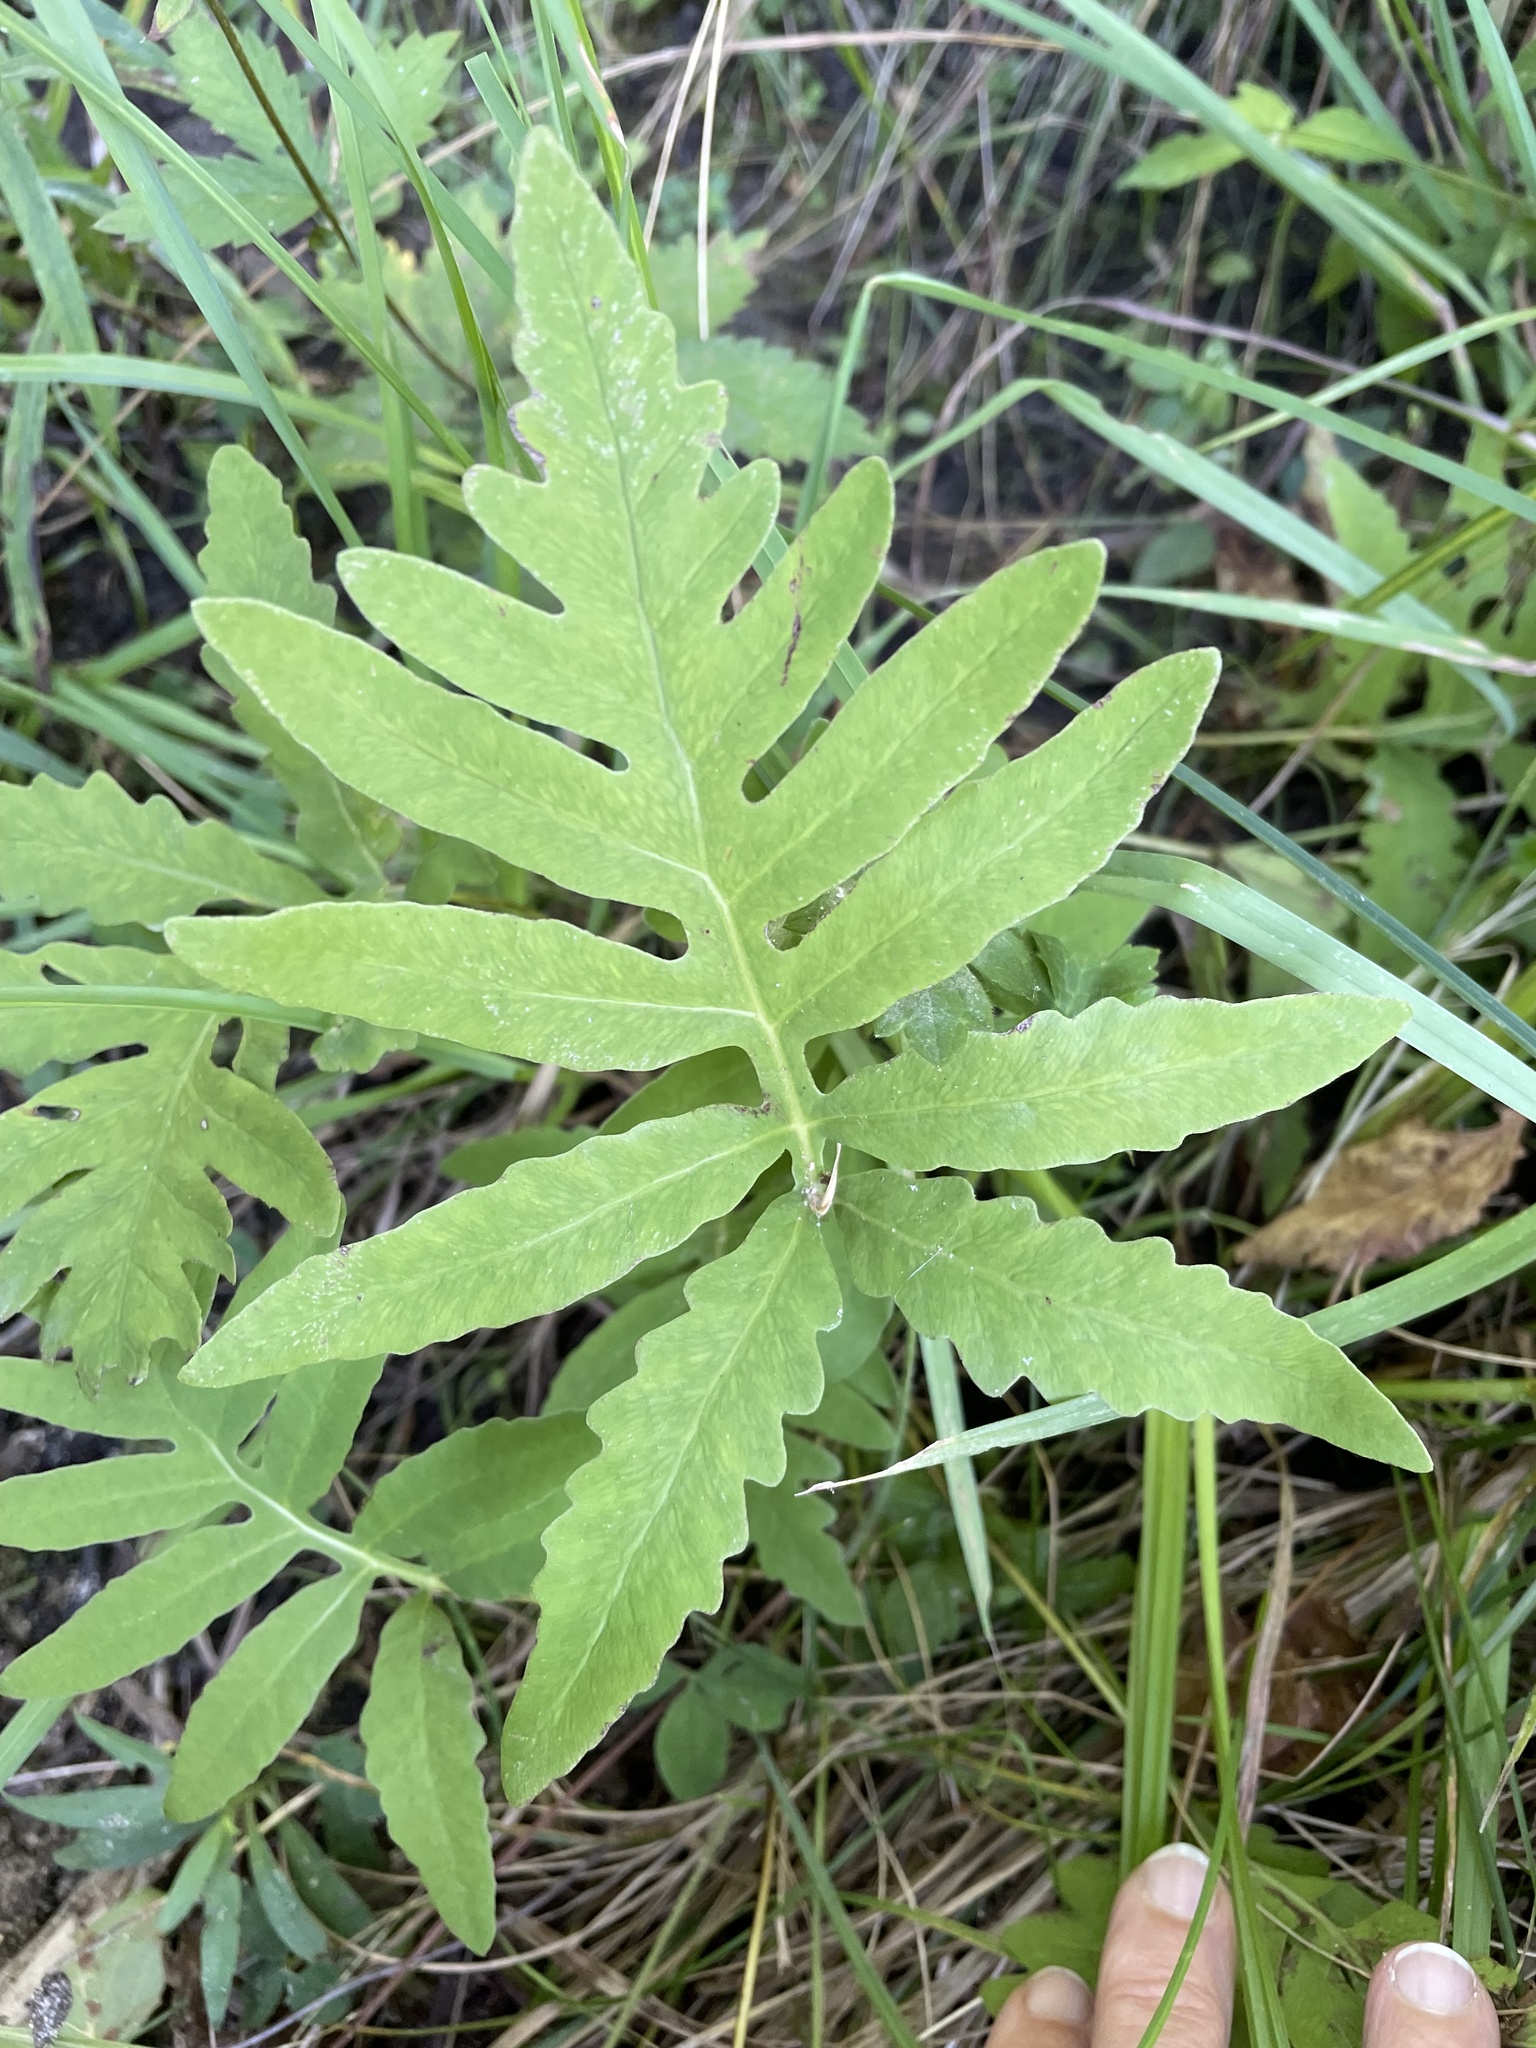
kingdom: Plantae
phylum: Tracheophyta
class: Polypodiopsida
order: Polypodiales
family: Onocleaceae
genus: Onoclea
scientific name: Onoclea sensibilis
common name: Sensitive fern
